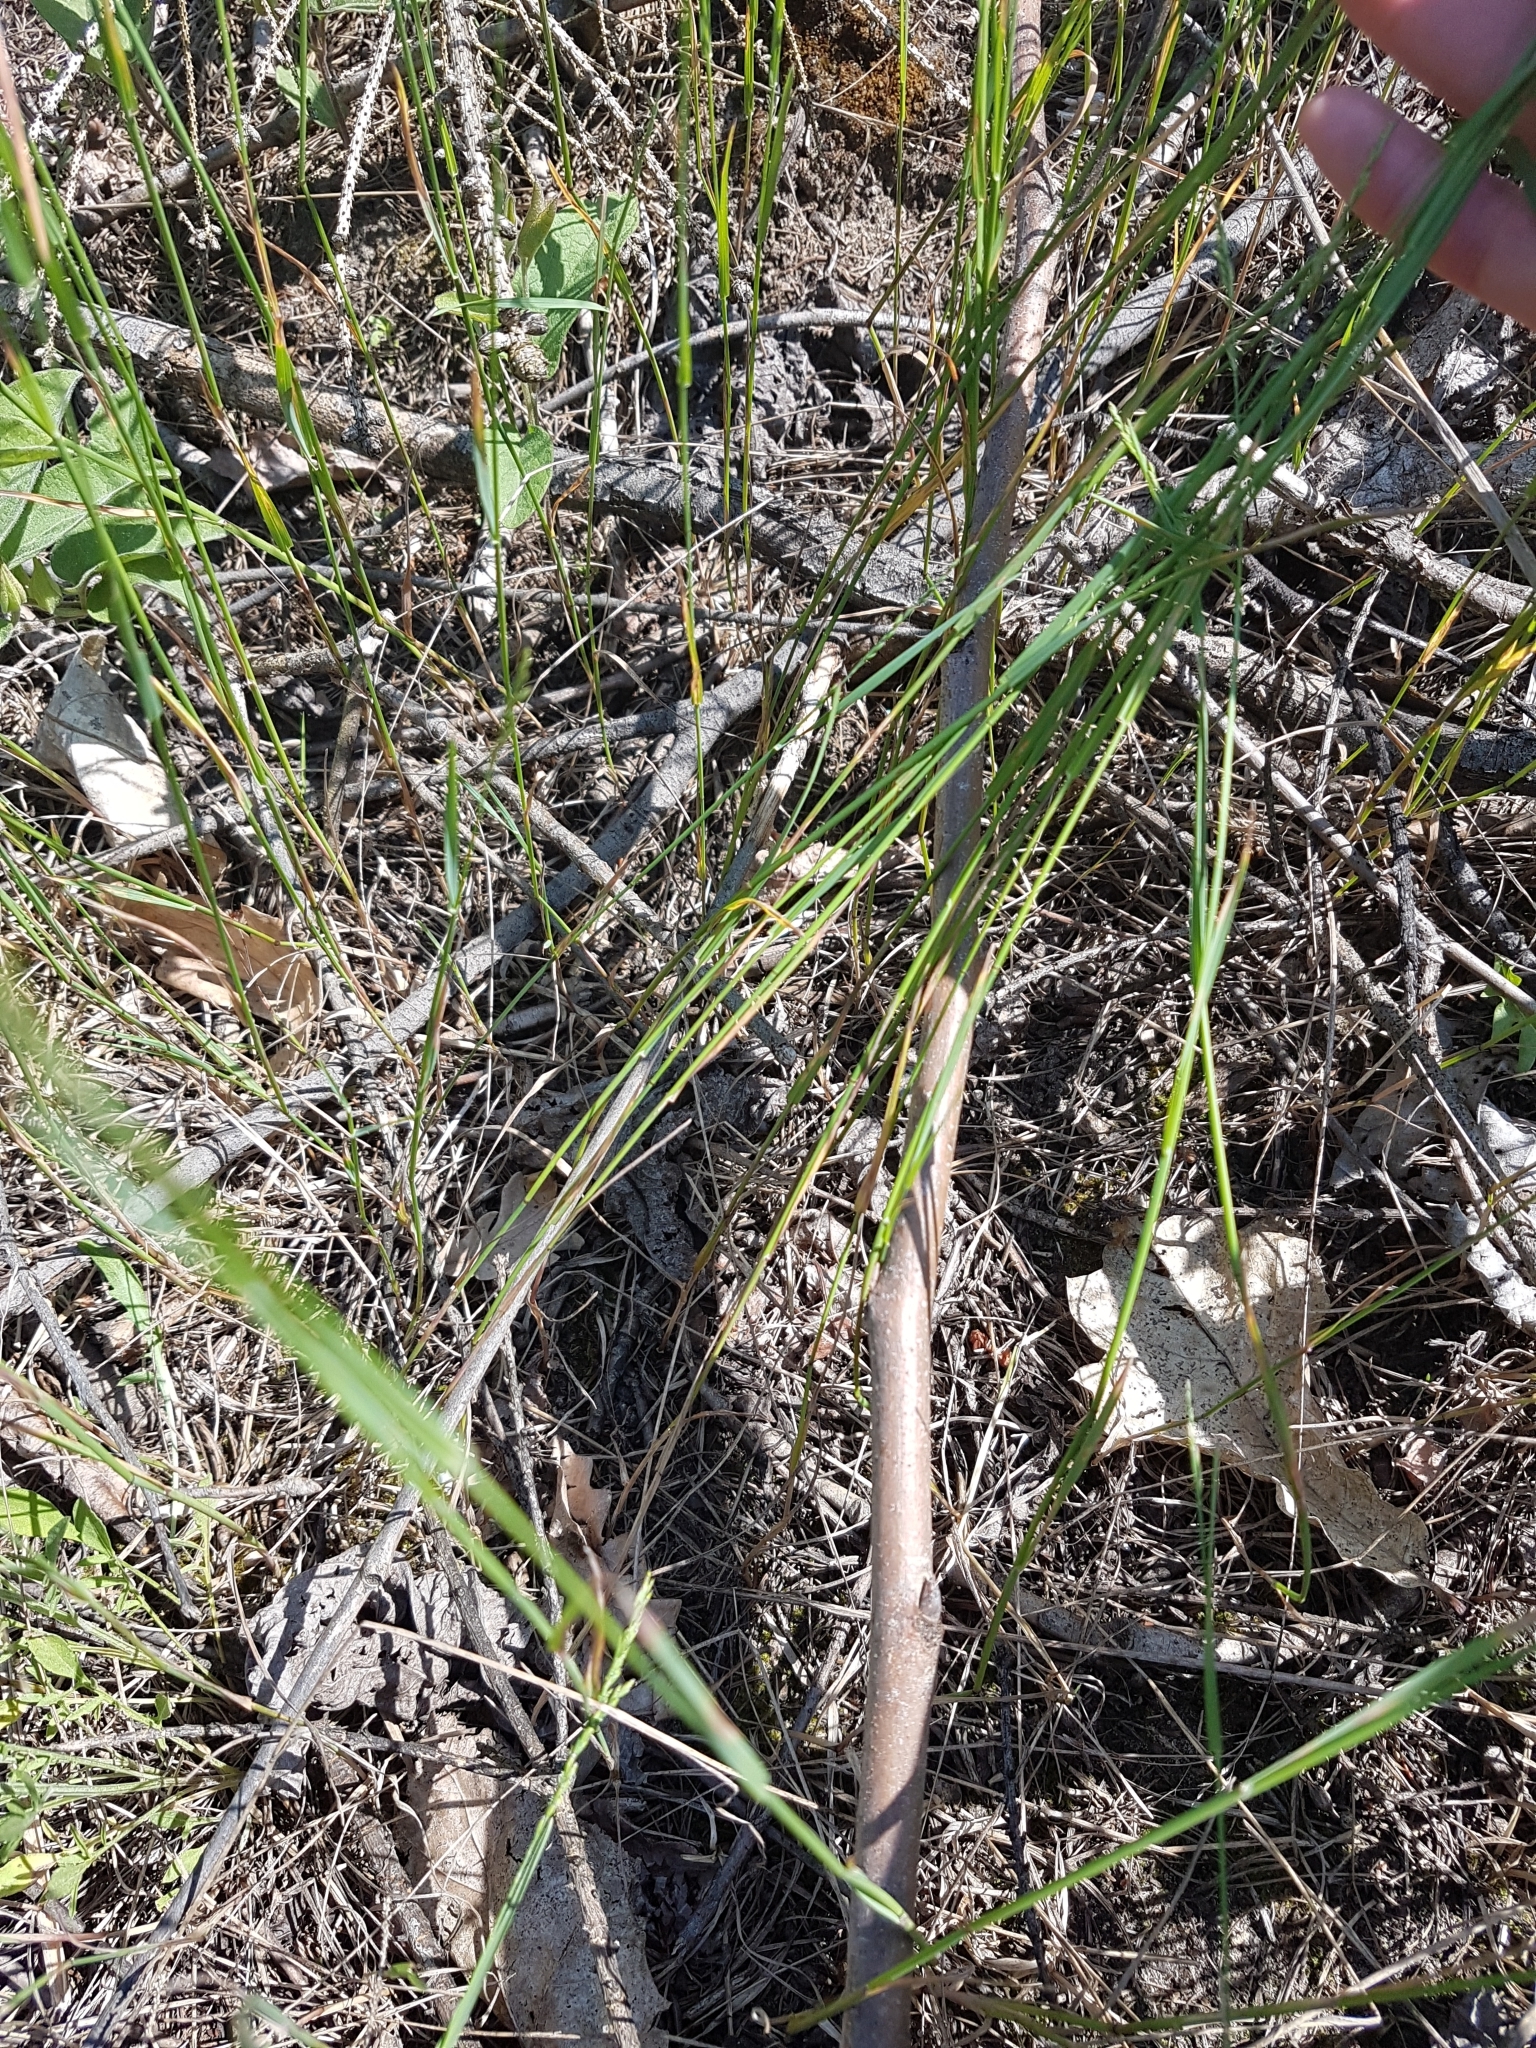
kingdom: Plantae
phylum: Tracheophyta
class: Liliopsida
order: Poales
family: Poaceae
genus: Poa
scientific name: Poa compressa
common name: Canada bluegrass
